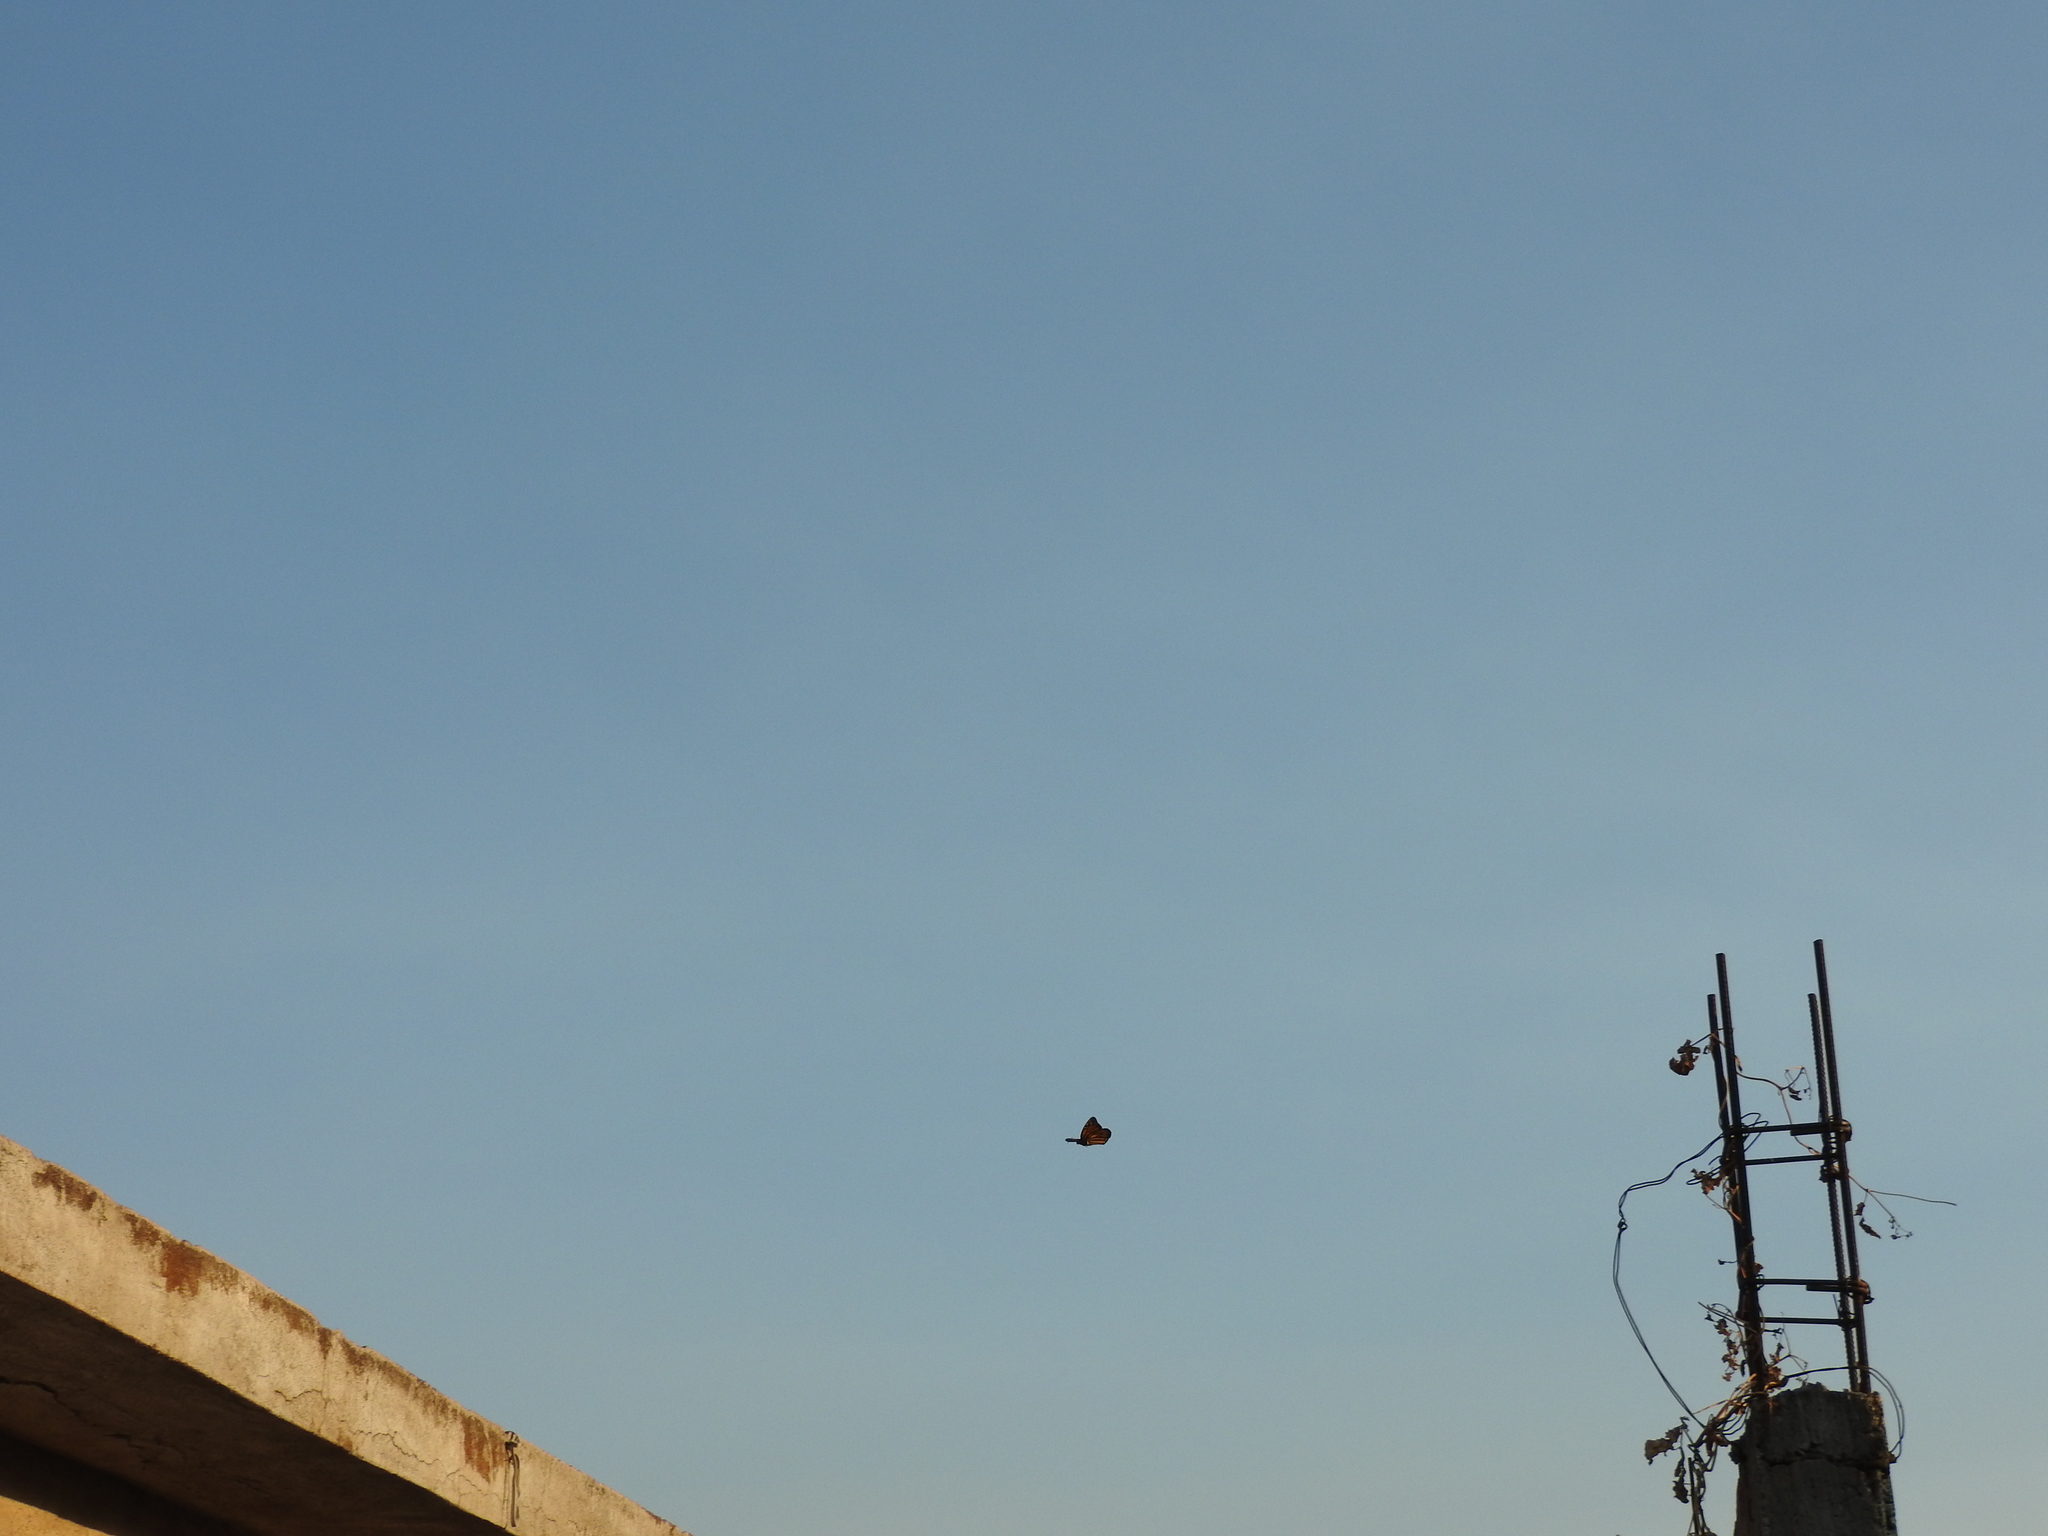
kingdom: Animalia
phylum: Arthropoda
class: Insecta
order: Lepidoptera
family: Nymphalidae
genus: Danaus
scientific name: Danaus plexippus
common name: Monarch
